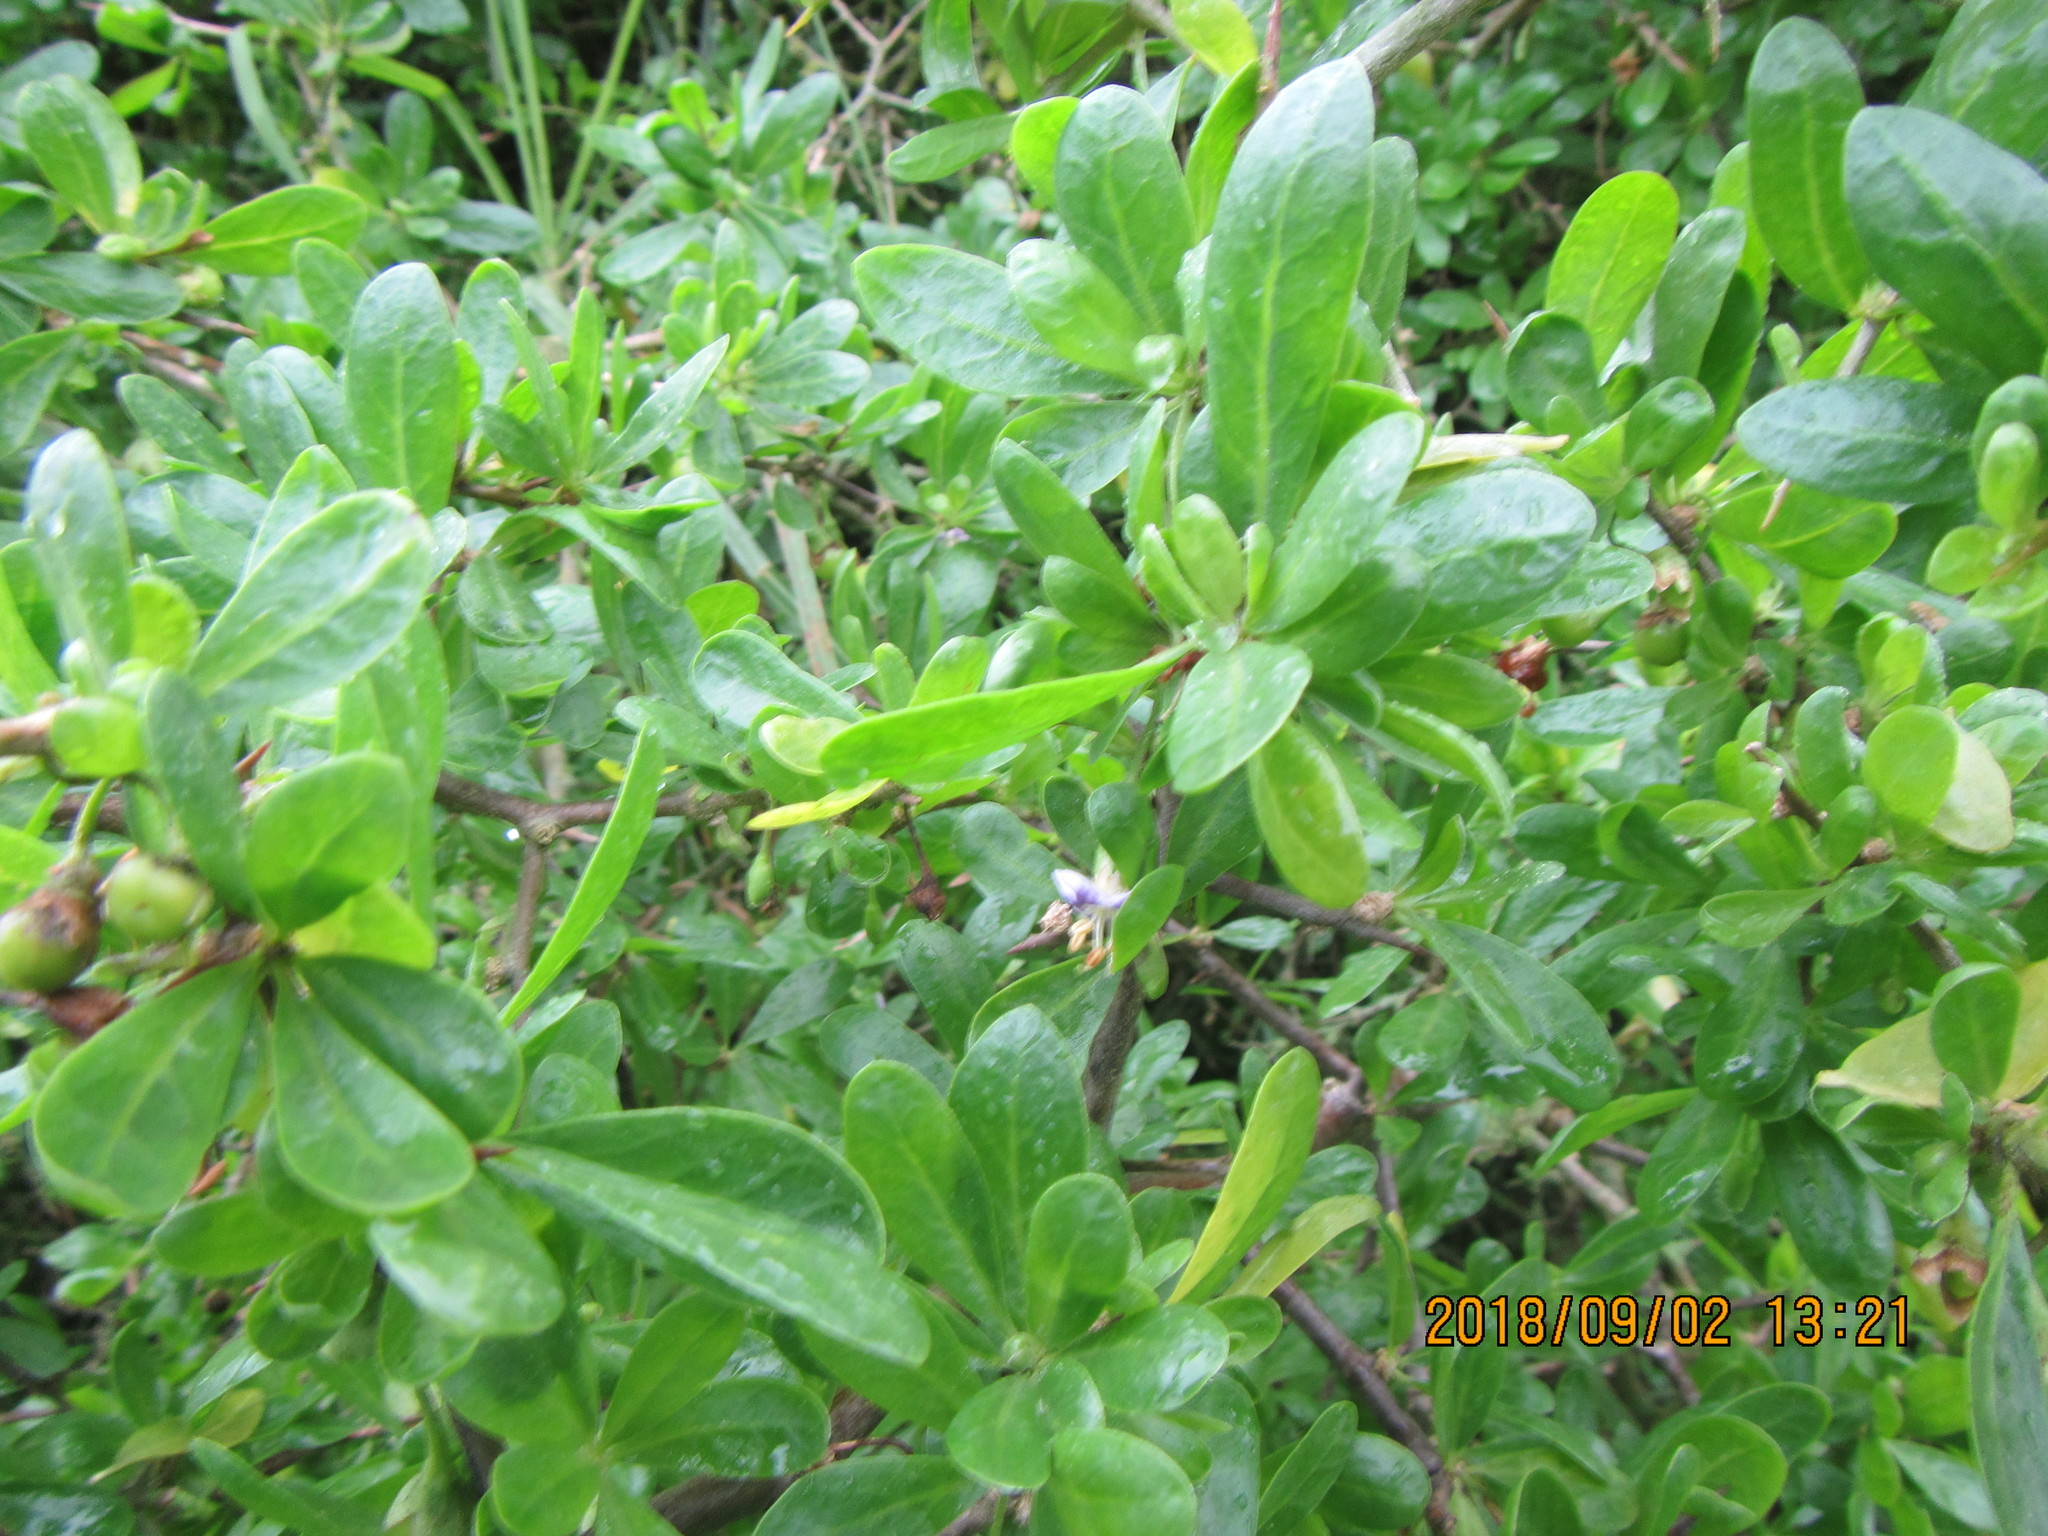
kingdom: Plantae
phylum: Tracheophyta
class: Magnoliopsida
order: Solanales
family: Solanaceae
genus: Lycium
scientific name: Lycium ferocissimum
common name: African boxthorn
